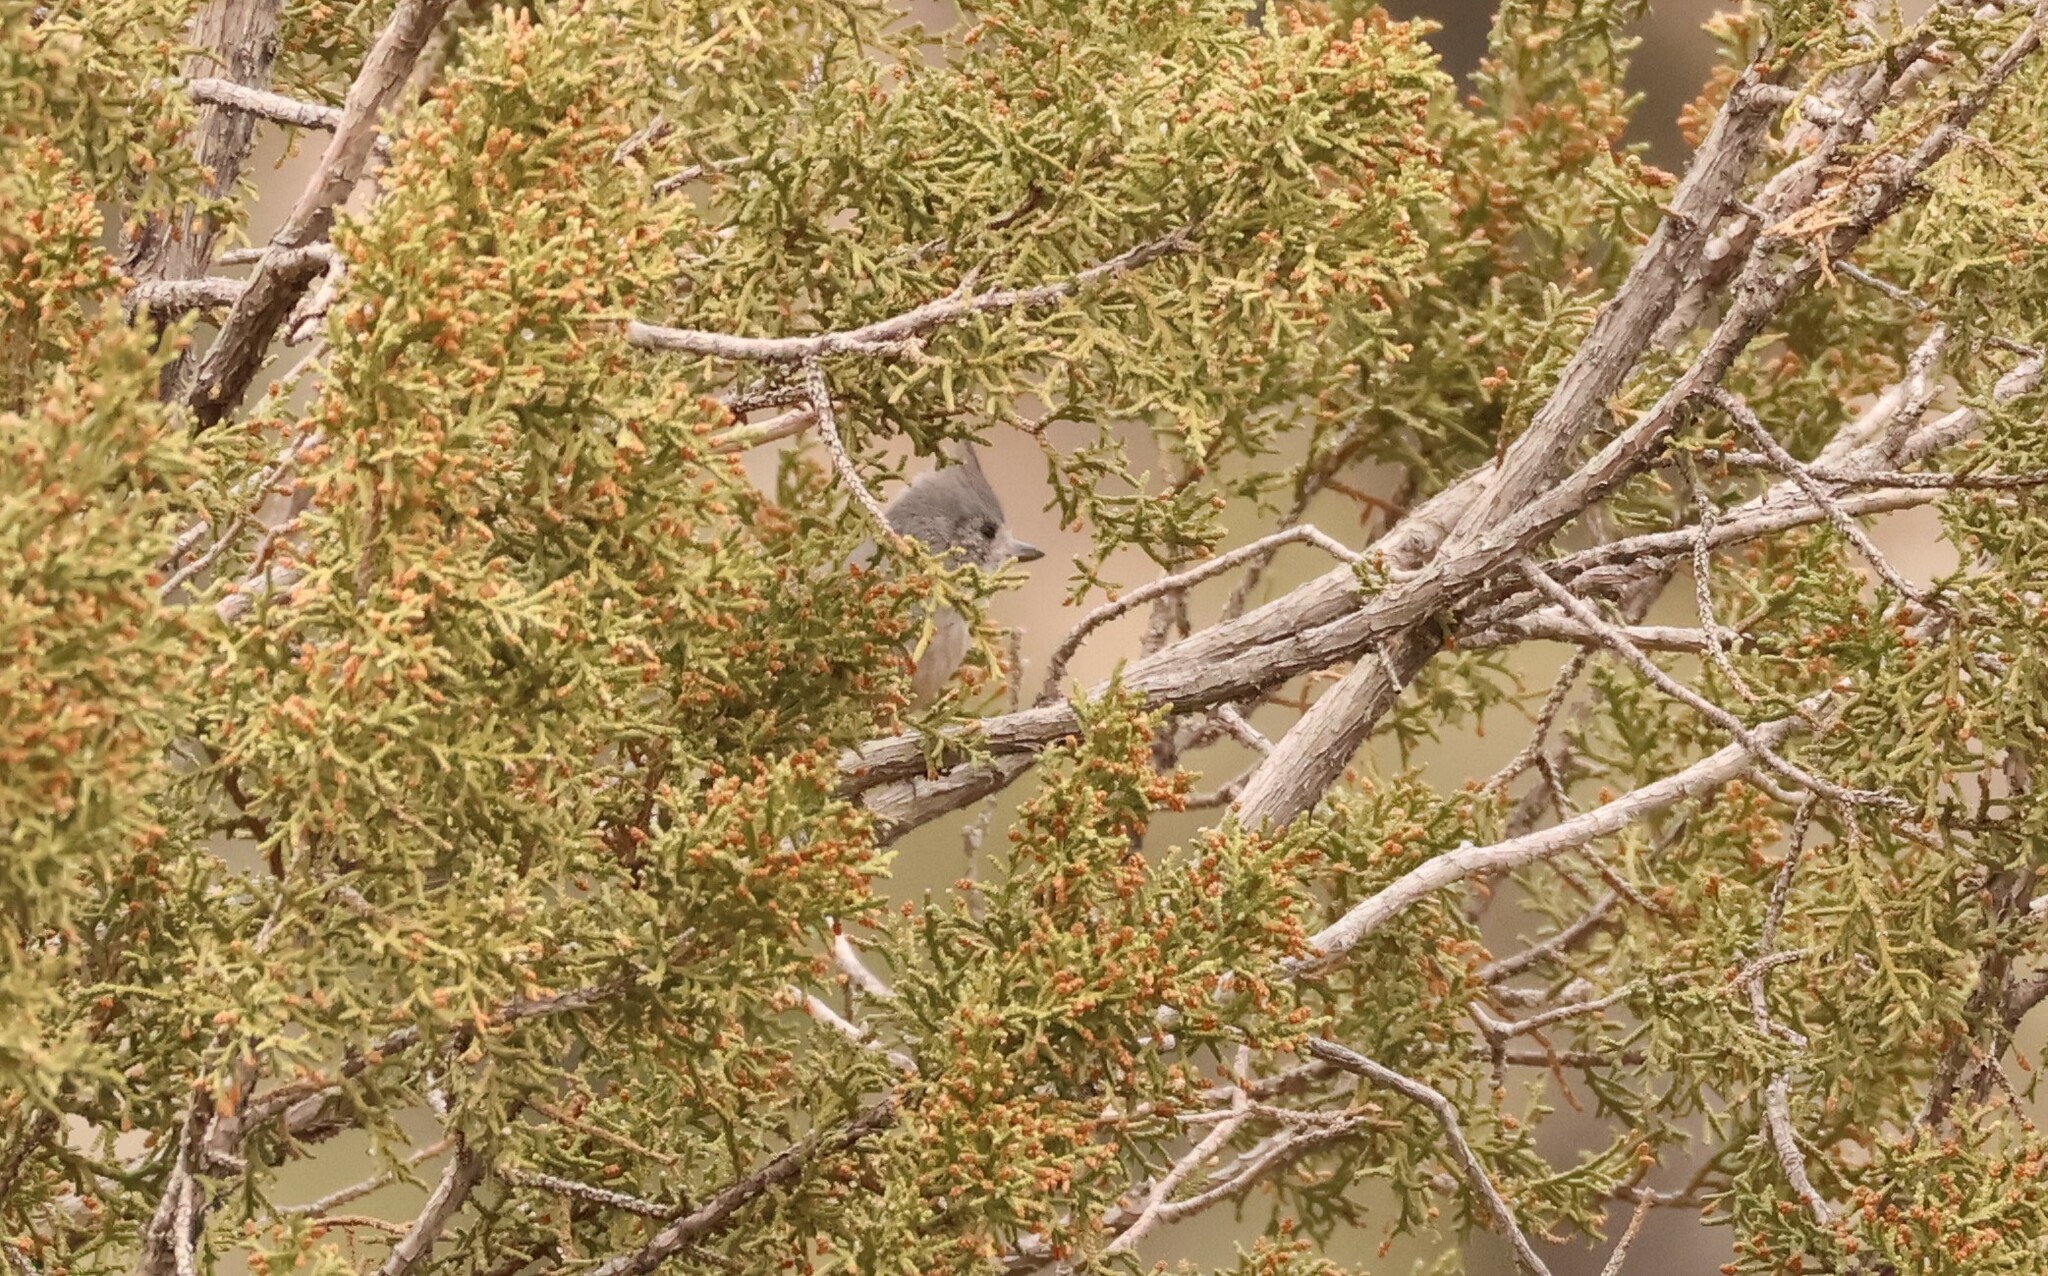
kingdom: Animalia
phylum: Chordata
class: Aves
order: Passeriformes
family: Paridae
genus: Baeolophus
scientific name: Baeolophus ridgwayi
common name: Juniper titmouse
